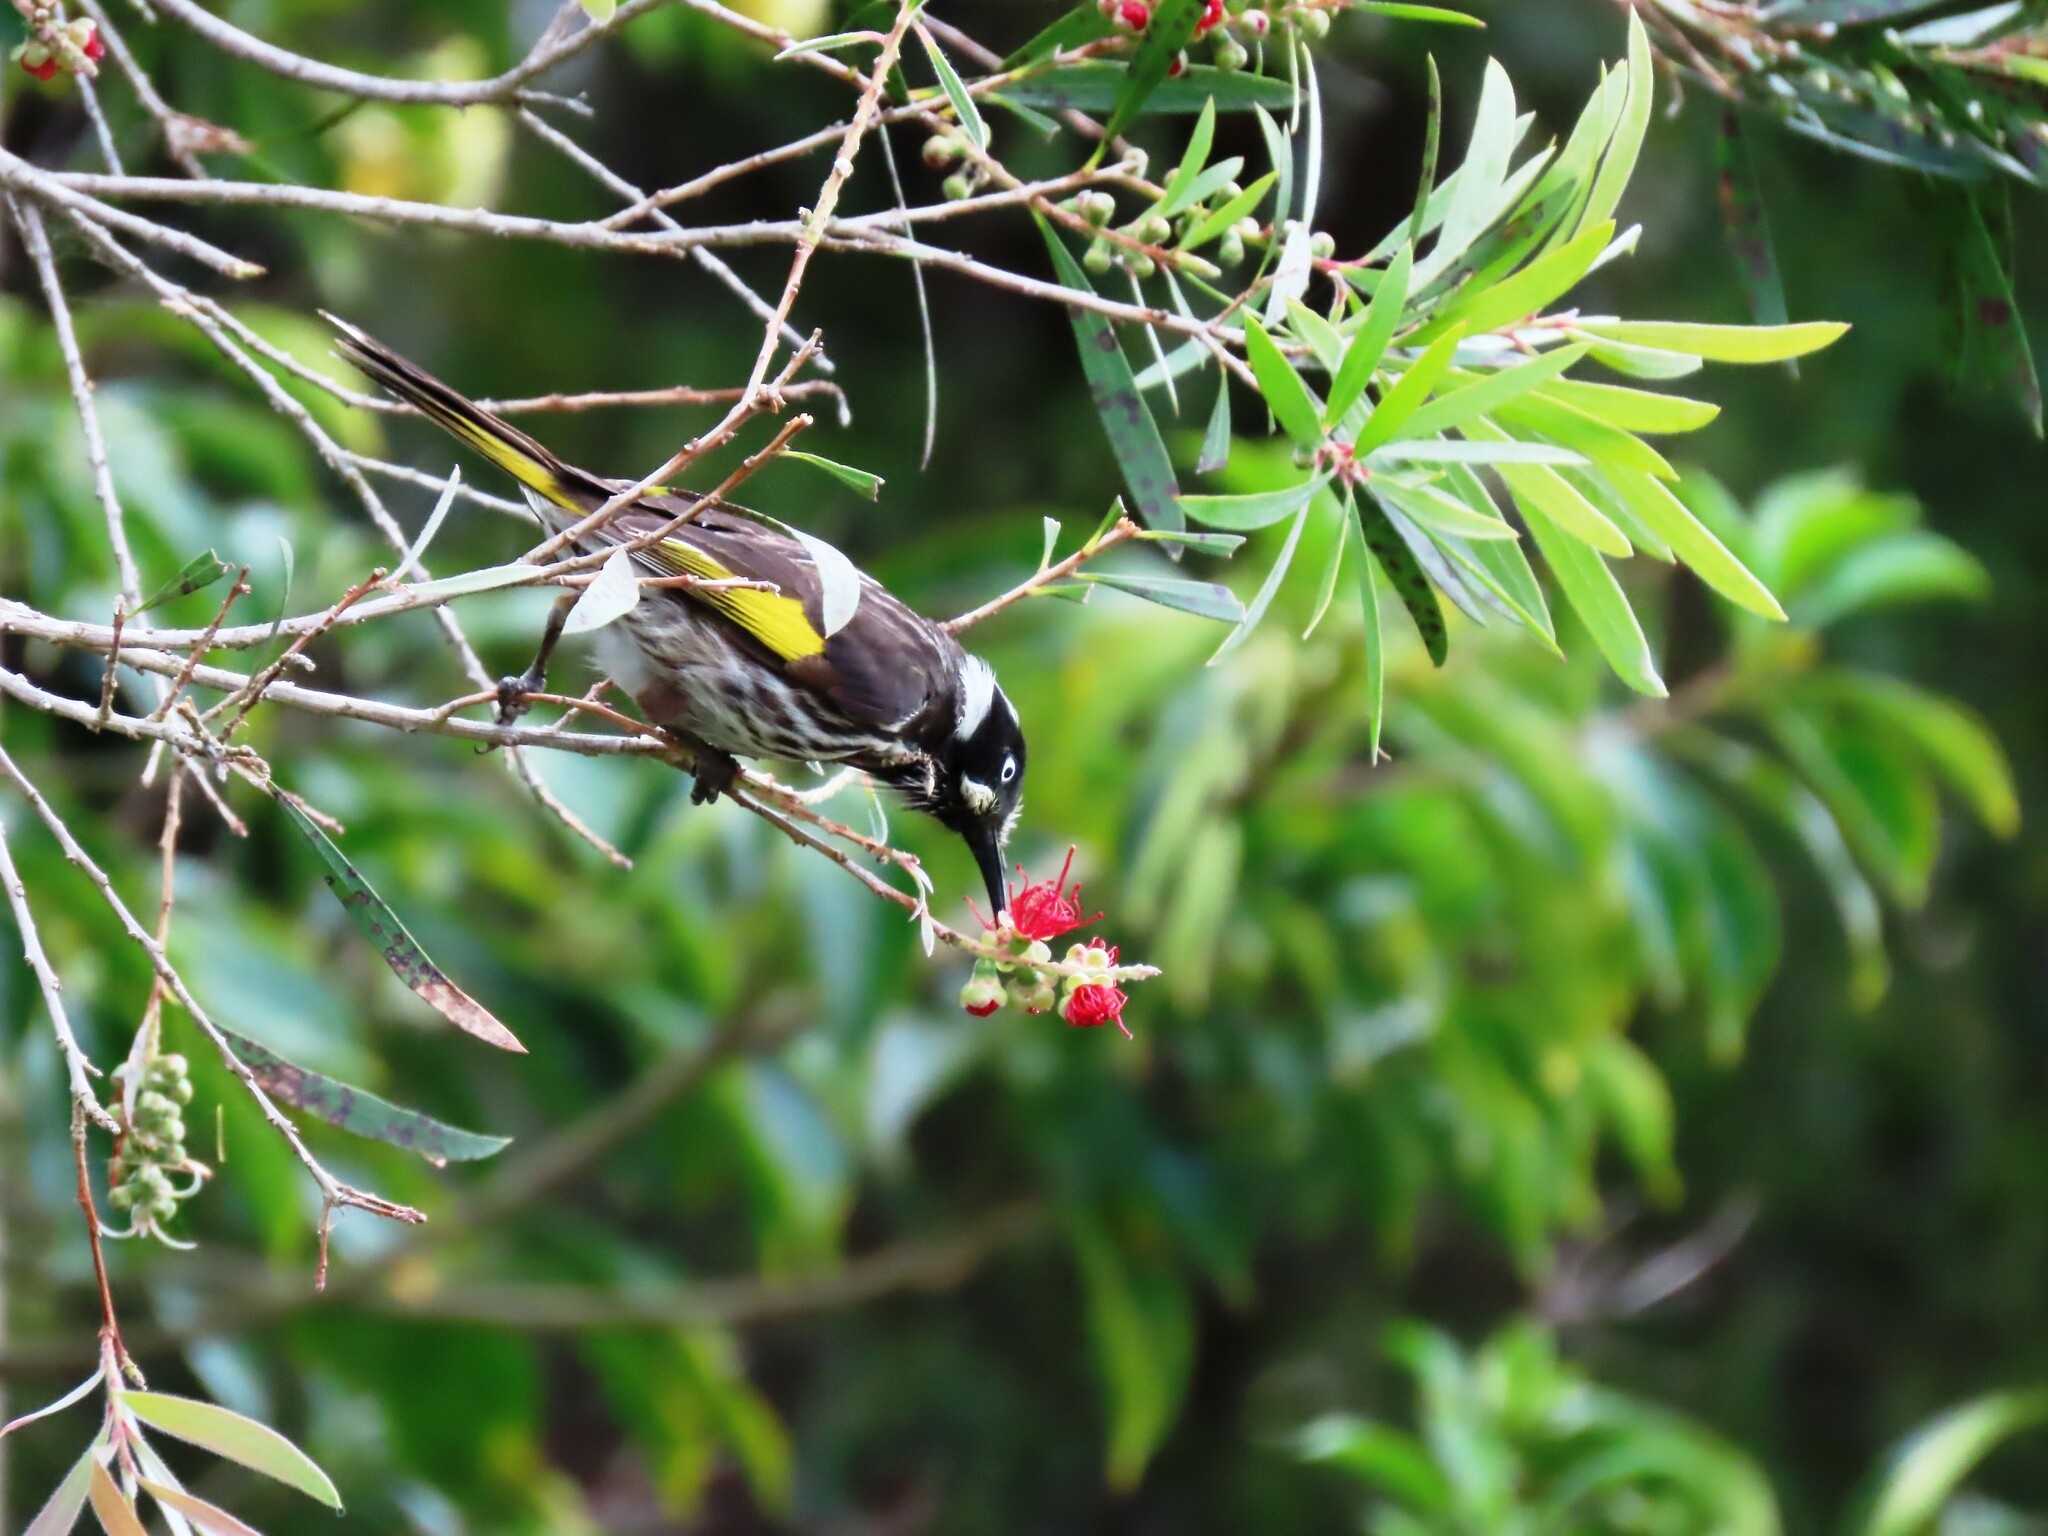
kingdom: Animalia
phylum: Chordata
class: Aves
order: Passeriformes
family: Meliphagidae
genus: Phylidonyris
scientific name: Phylidonyris novaehollandiae
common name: New holland honeyeater
